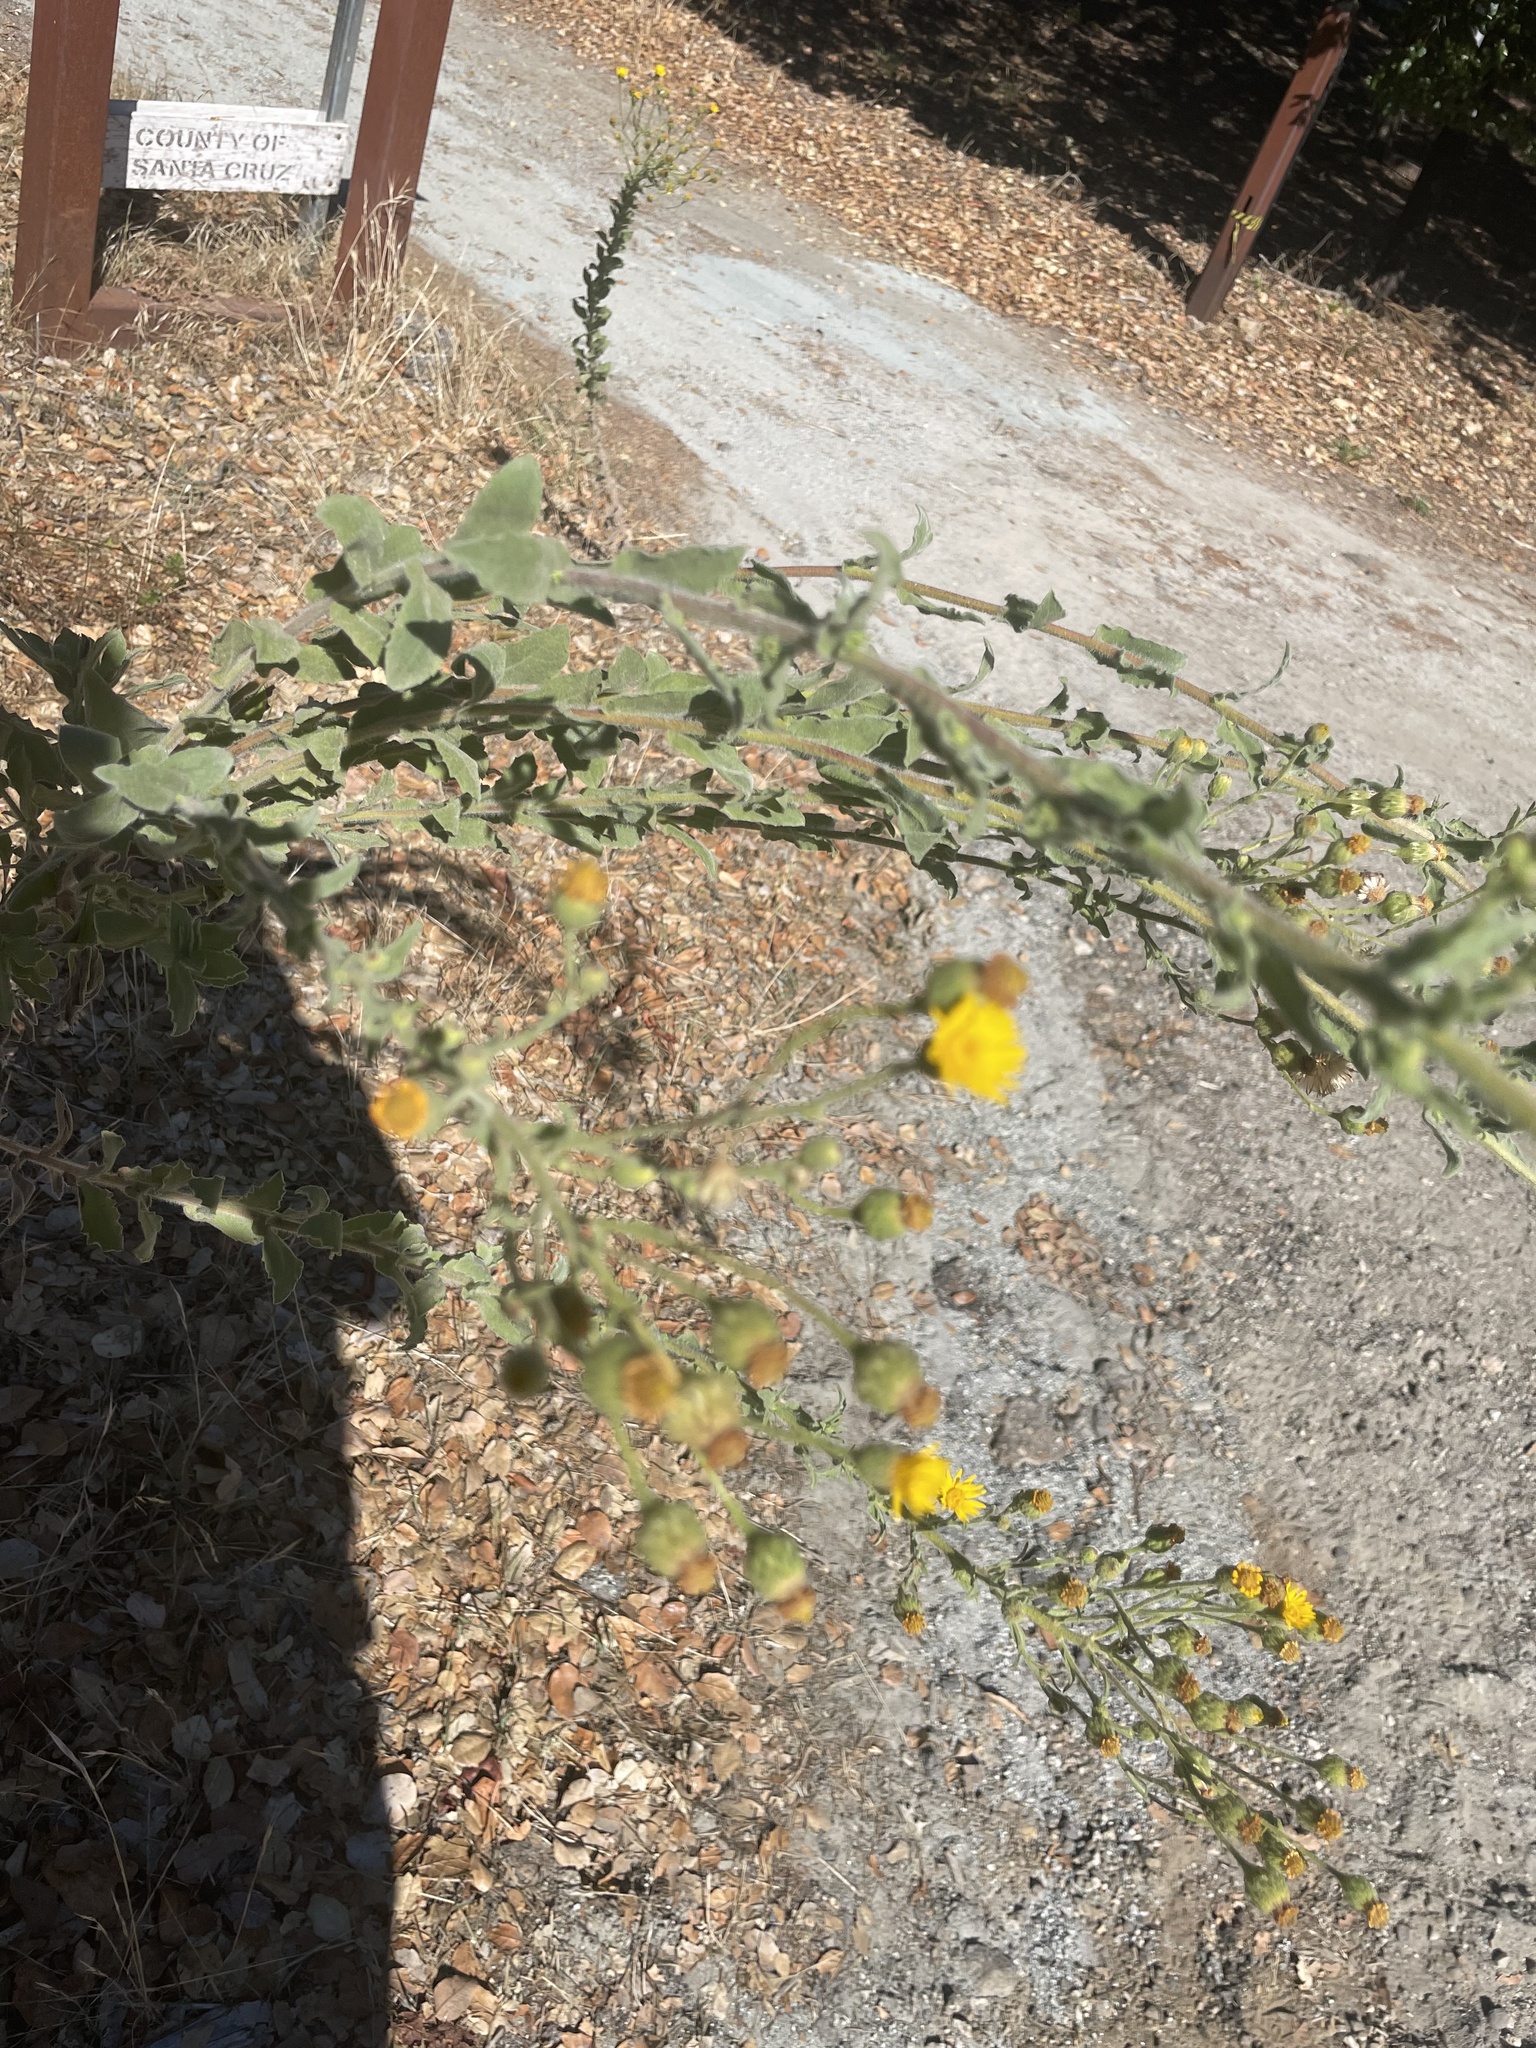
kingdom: Plantae
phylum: Tracheophyta
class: Magnoliopsida
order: Asterales
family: Asteraceae
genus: Heterotheca
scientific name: Heterotheca grandiflora
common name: Telegraphweed
